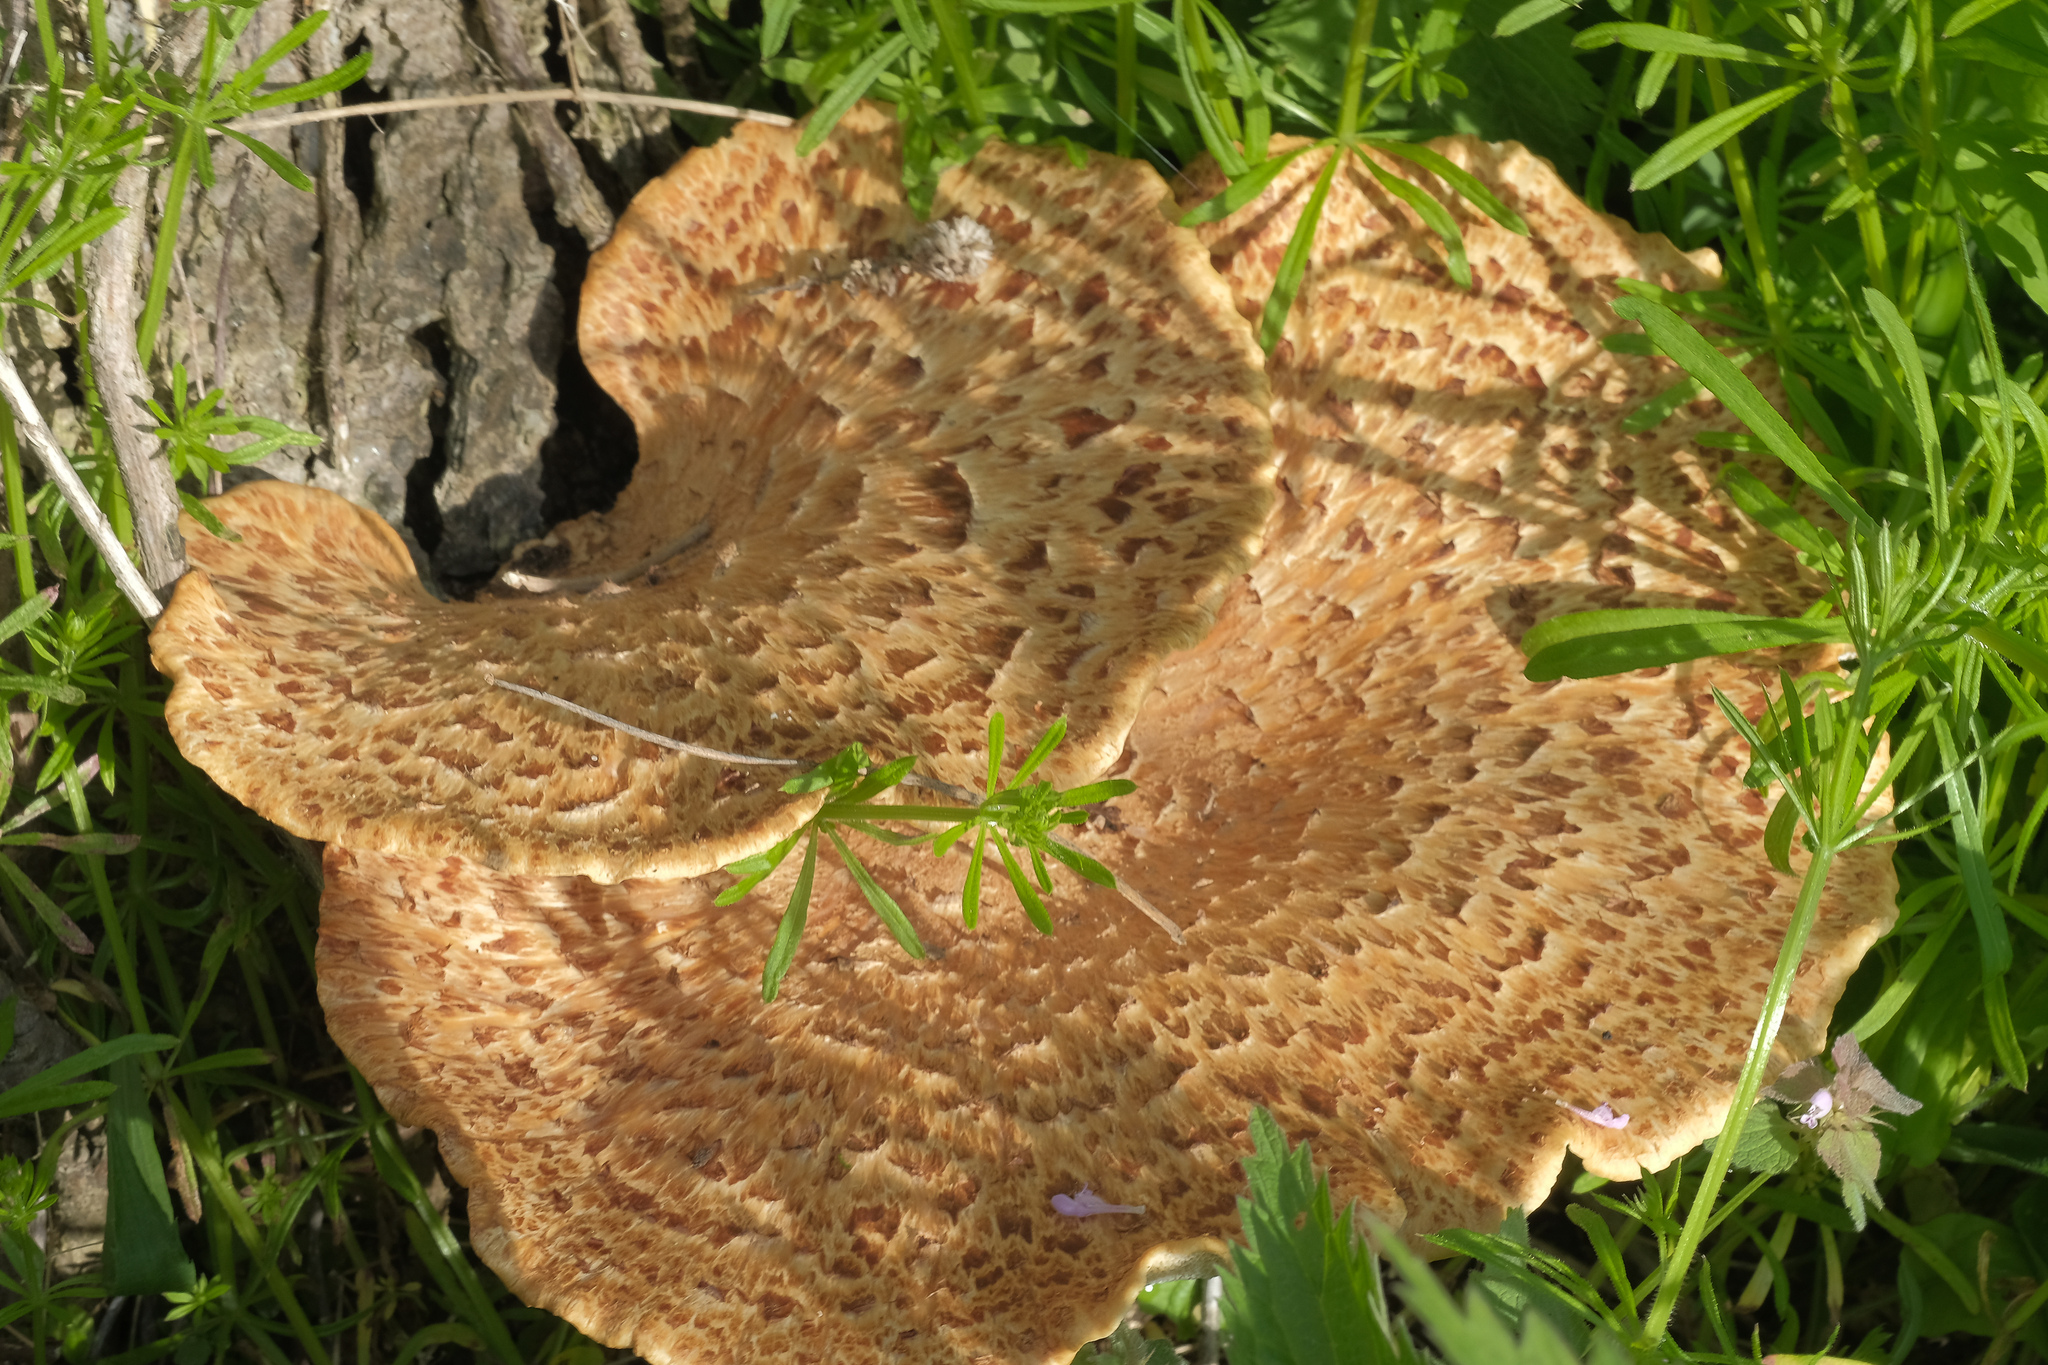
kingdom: Fungi
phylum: Basidiomycota
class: Agaricomycetes
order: Polyporales
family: Polyporaceae
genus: Cerioporus
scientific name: Cerioporus squamosus
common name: Dryad's saddle
